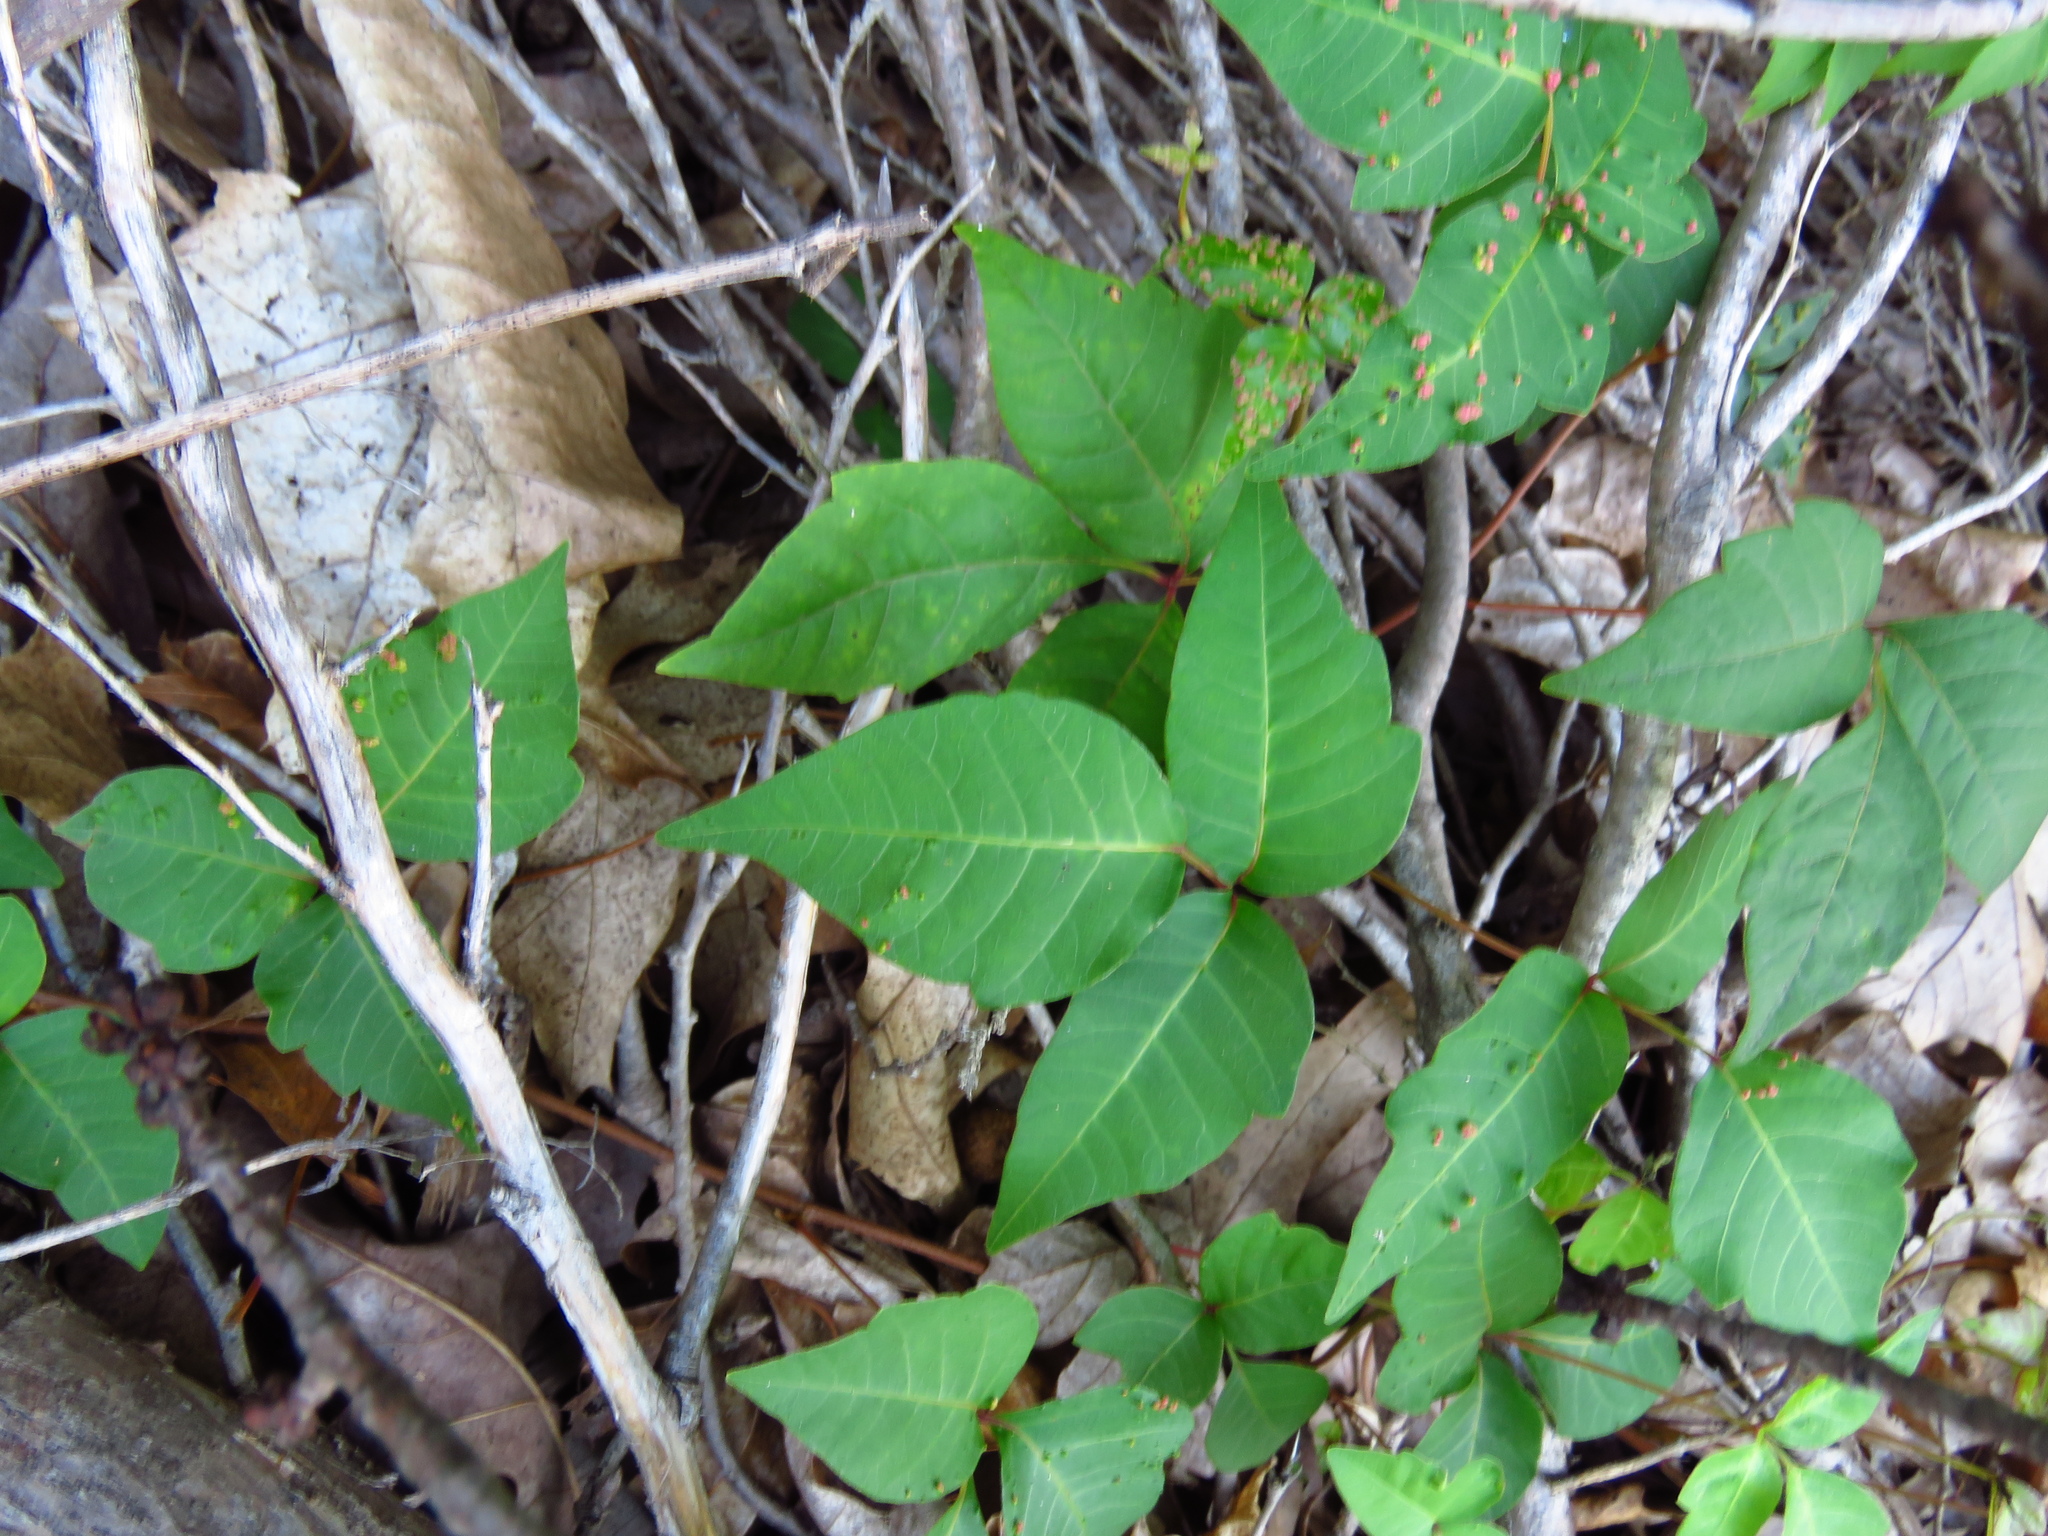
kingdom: Plantae
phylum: Tracheophyta
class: Magnoliopsida
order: Sapindales
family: Anacardiaceae
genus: Toxicodendron
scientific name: Toxicodendron radicans
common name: Poison ivy
